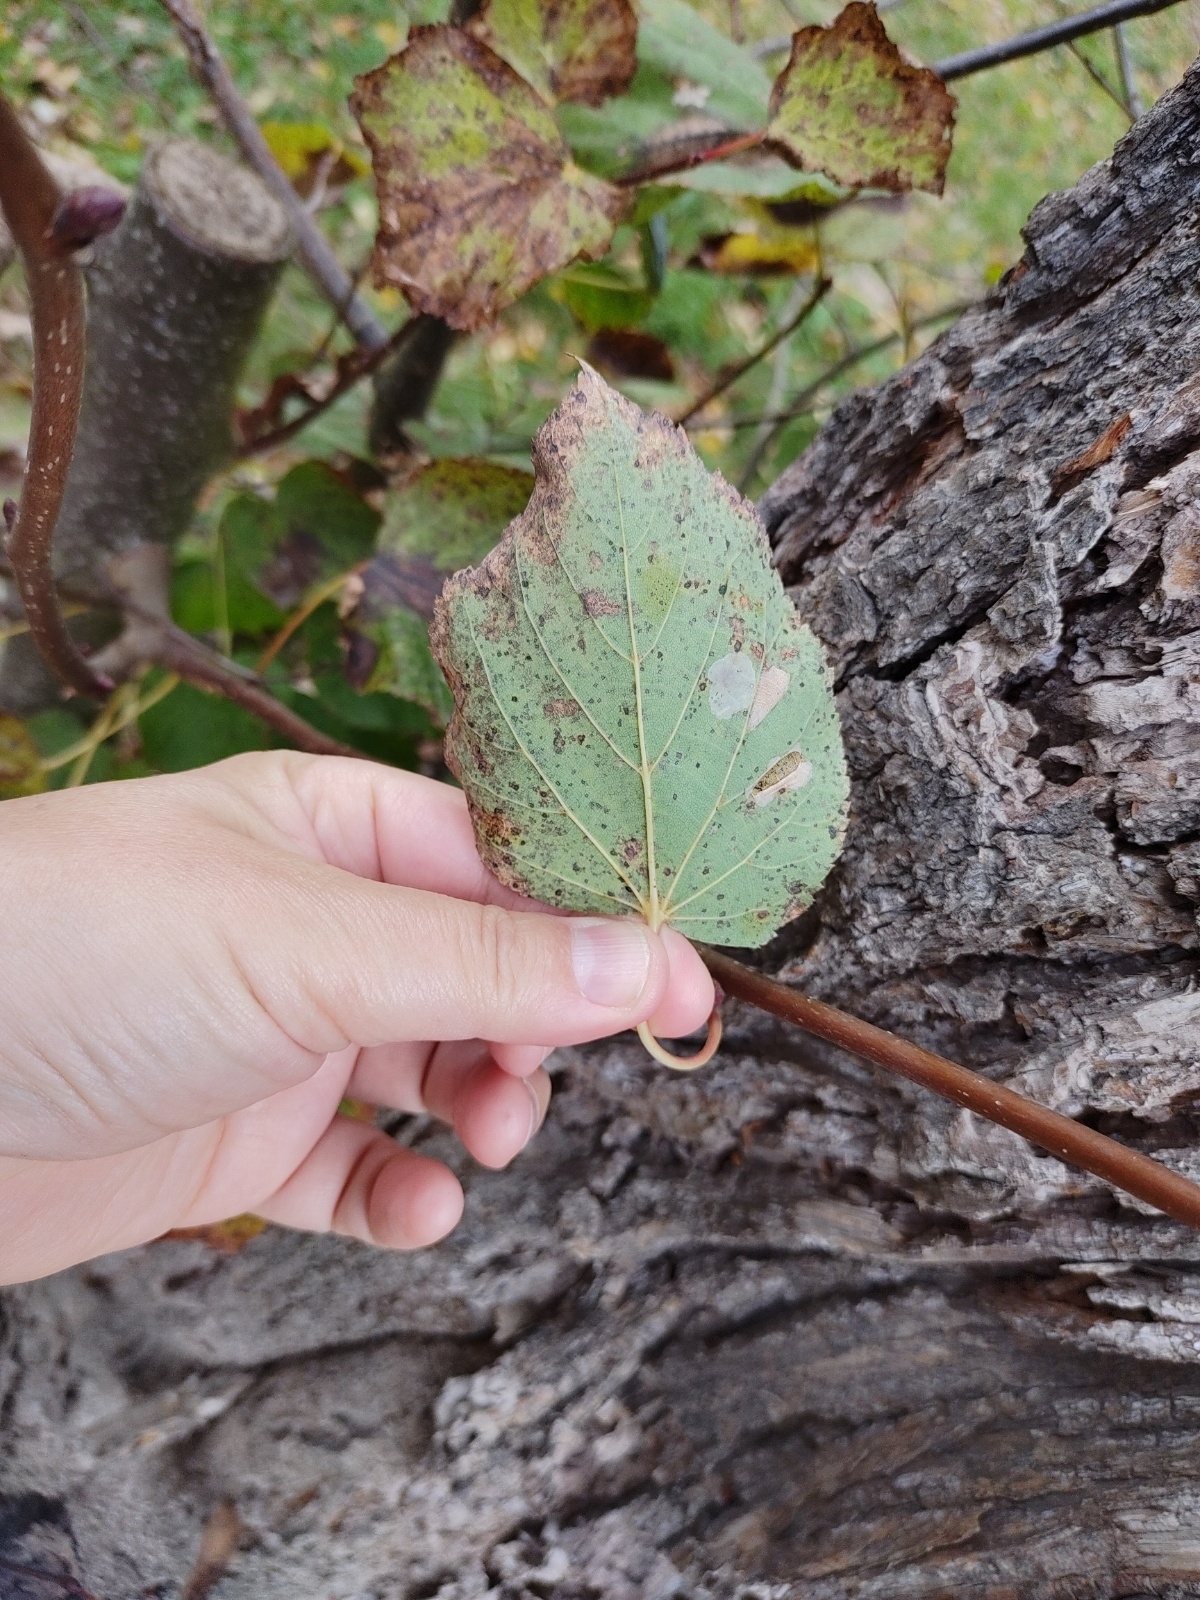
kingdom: Plantae
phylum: Tracheophyta
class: Magnoliopsida
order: Malvales
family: Malvaceae
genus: Tilia
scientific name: Tilia cordata
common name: Small-leaved lime
